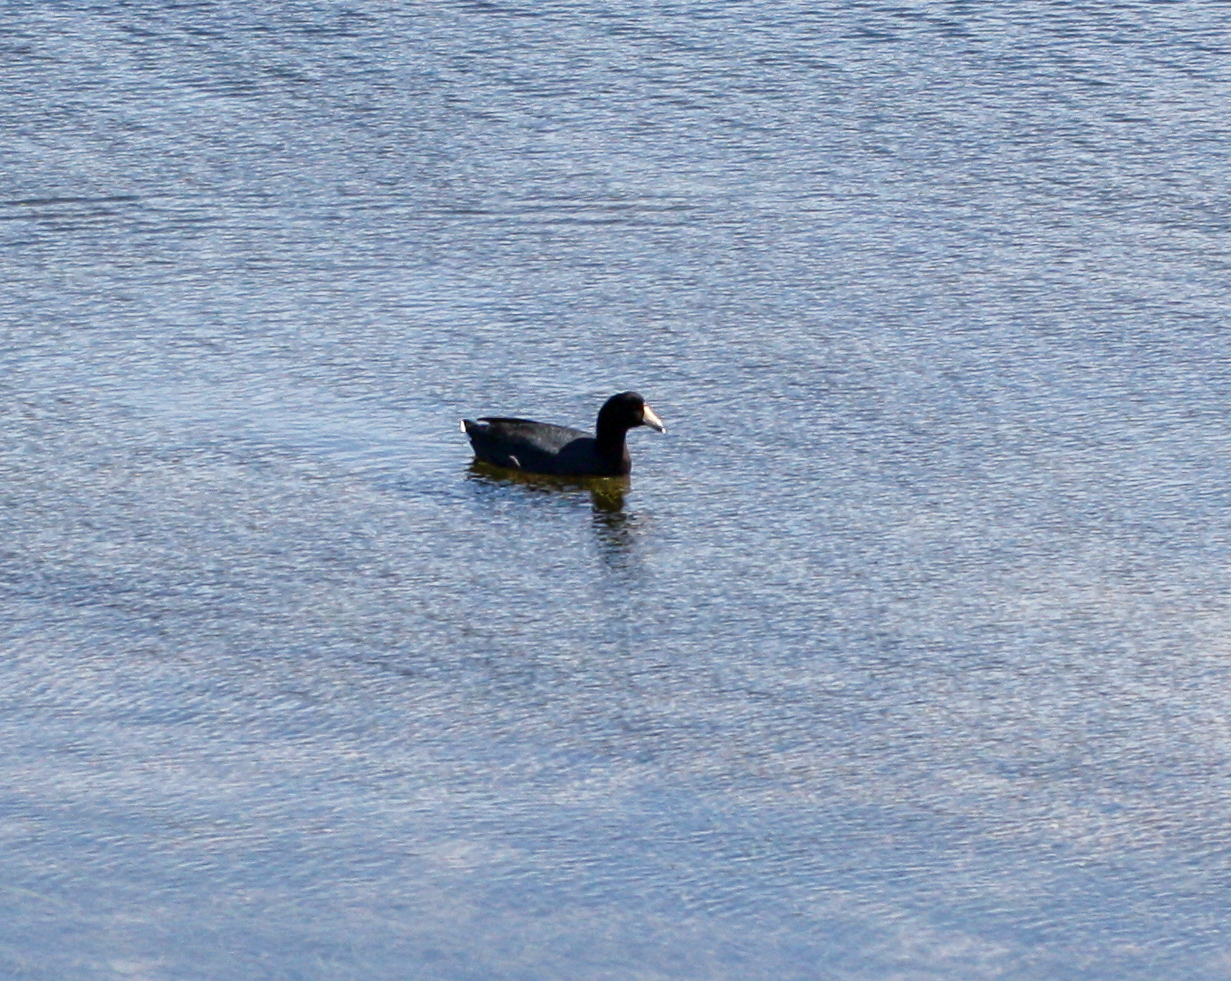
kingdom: Animalia
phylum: Chordata
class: Aves
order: Gruiformes
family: Rallidae
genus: Fulica
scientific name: Fulica americana
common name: American coot
